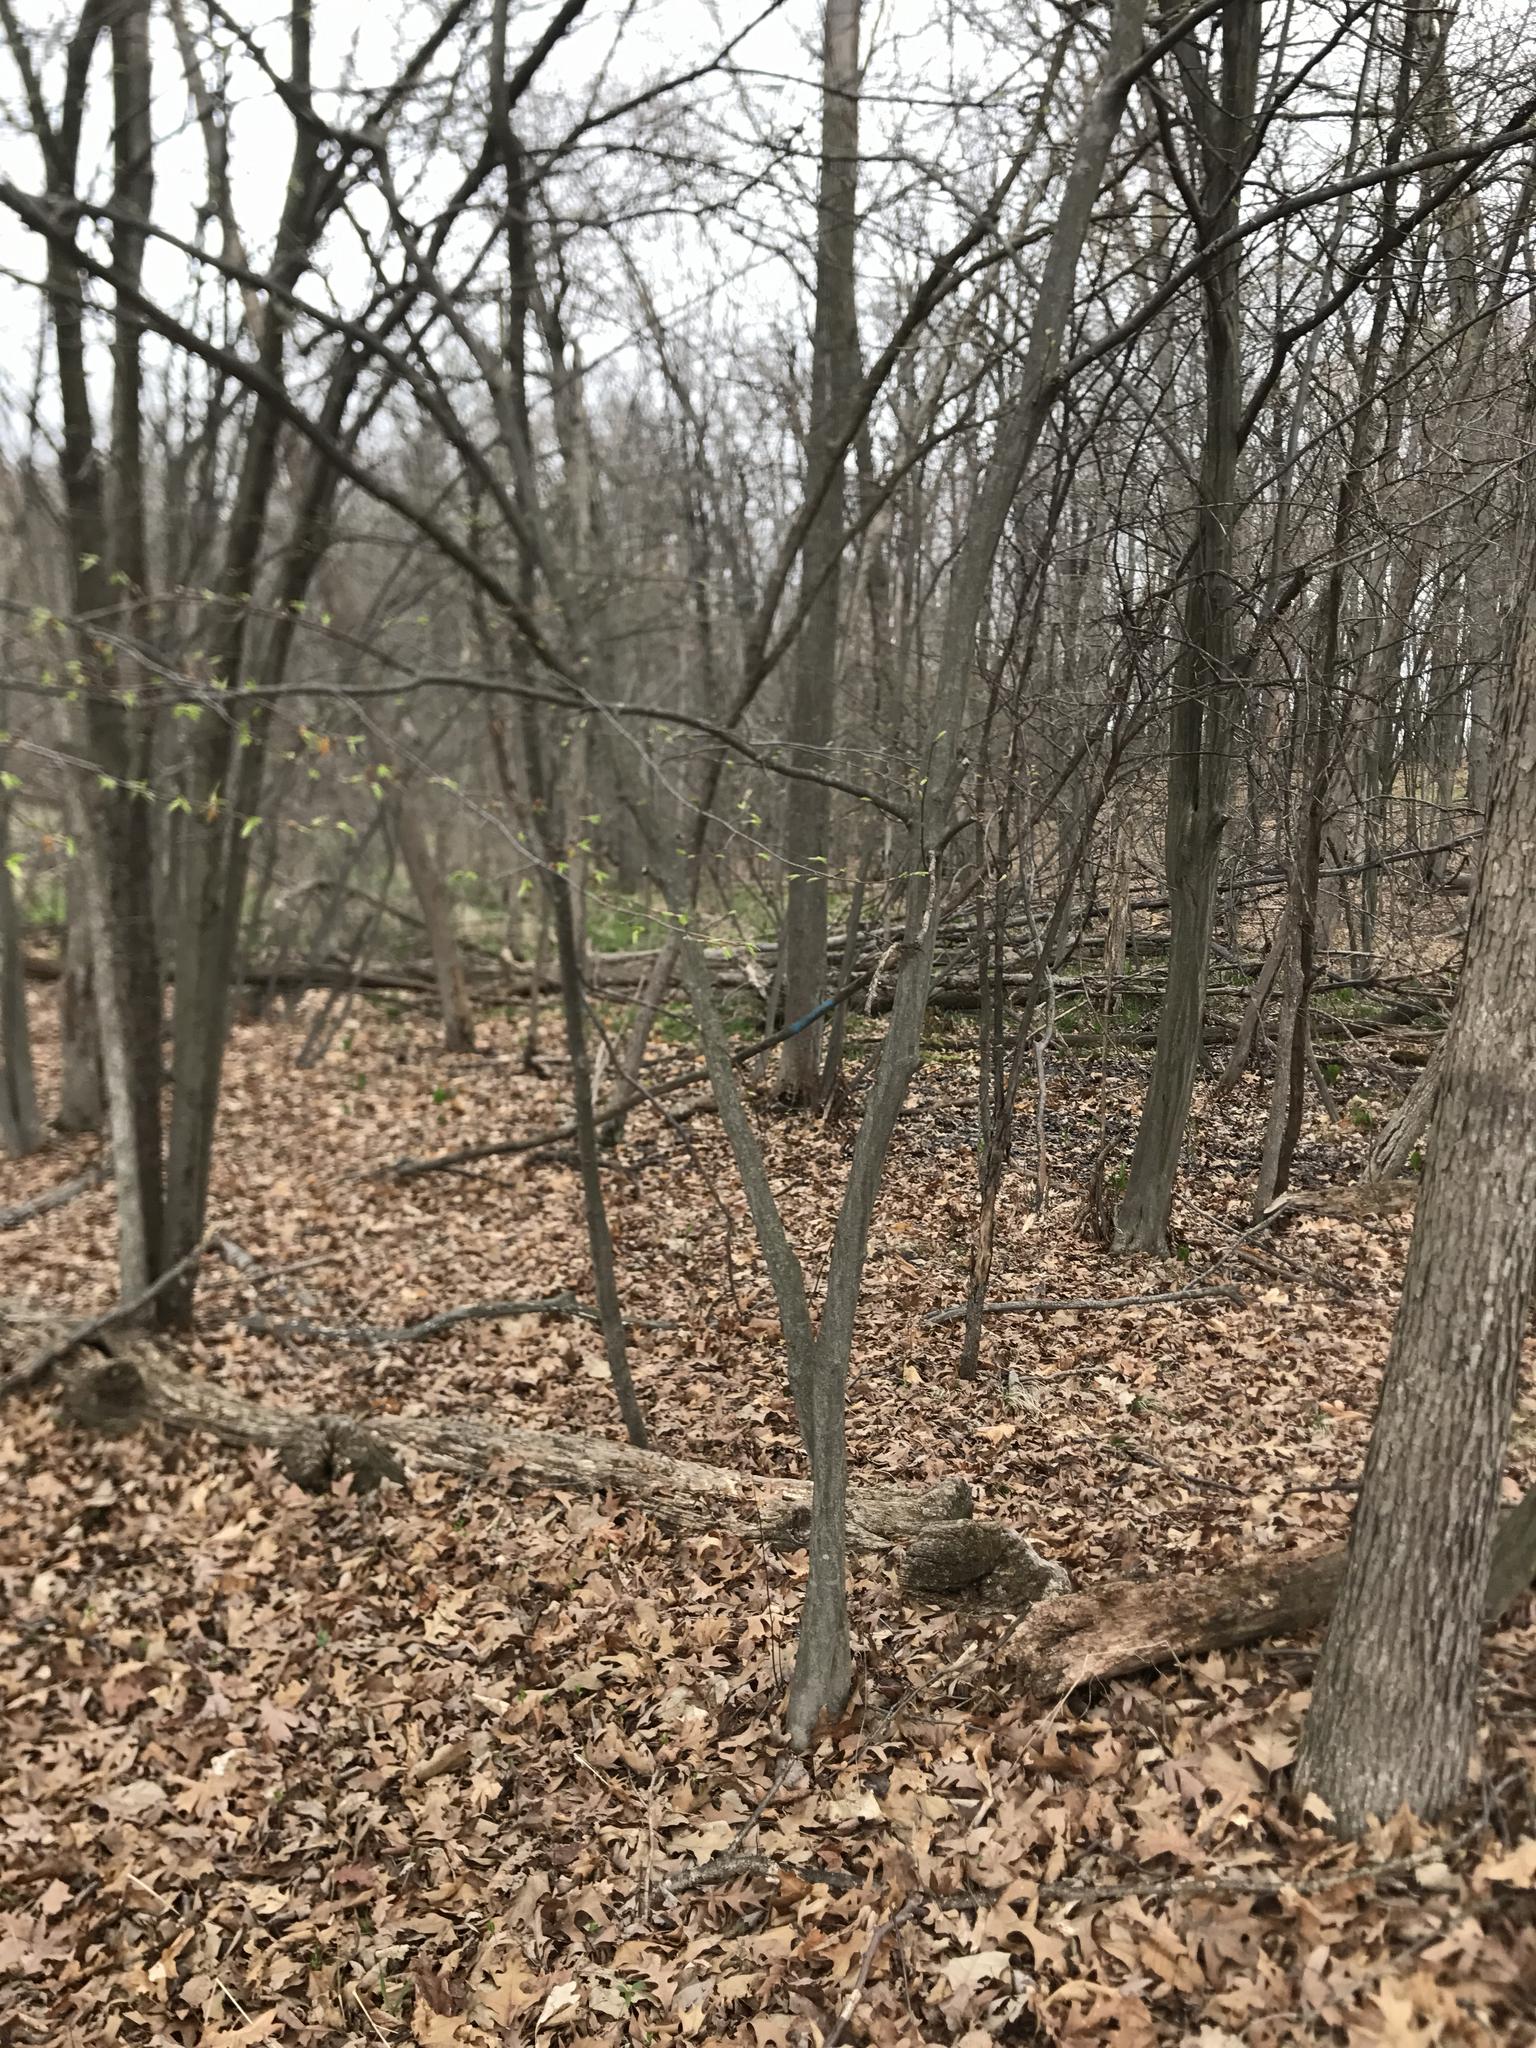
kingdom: Plantae
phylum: Tracheophyta
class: Magnoliopsida
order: Fagales
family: Betulaceae
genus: Carpinus
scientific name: Carpinus caroliniana
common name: American hornbeam
